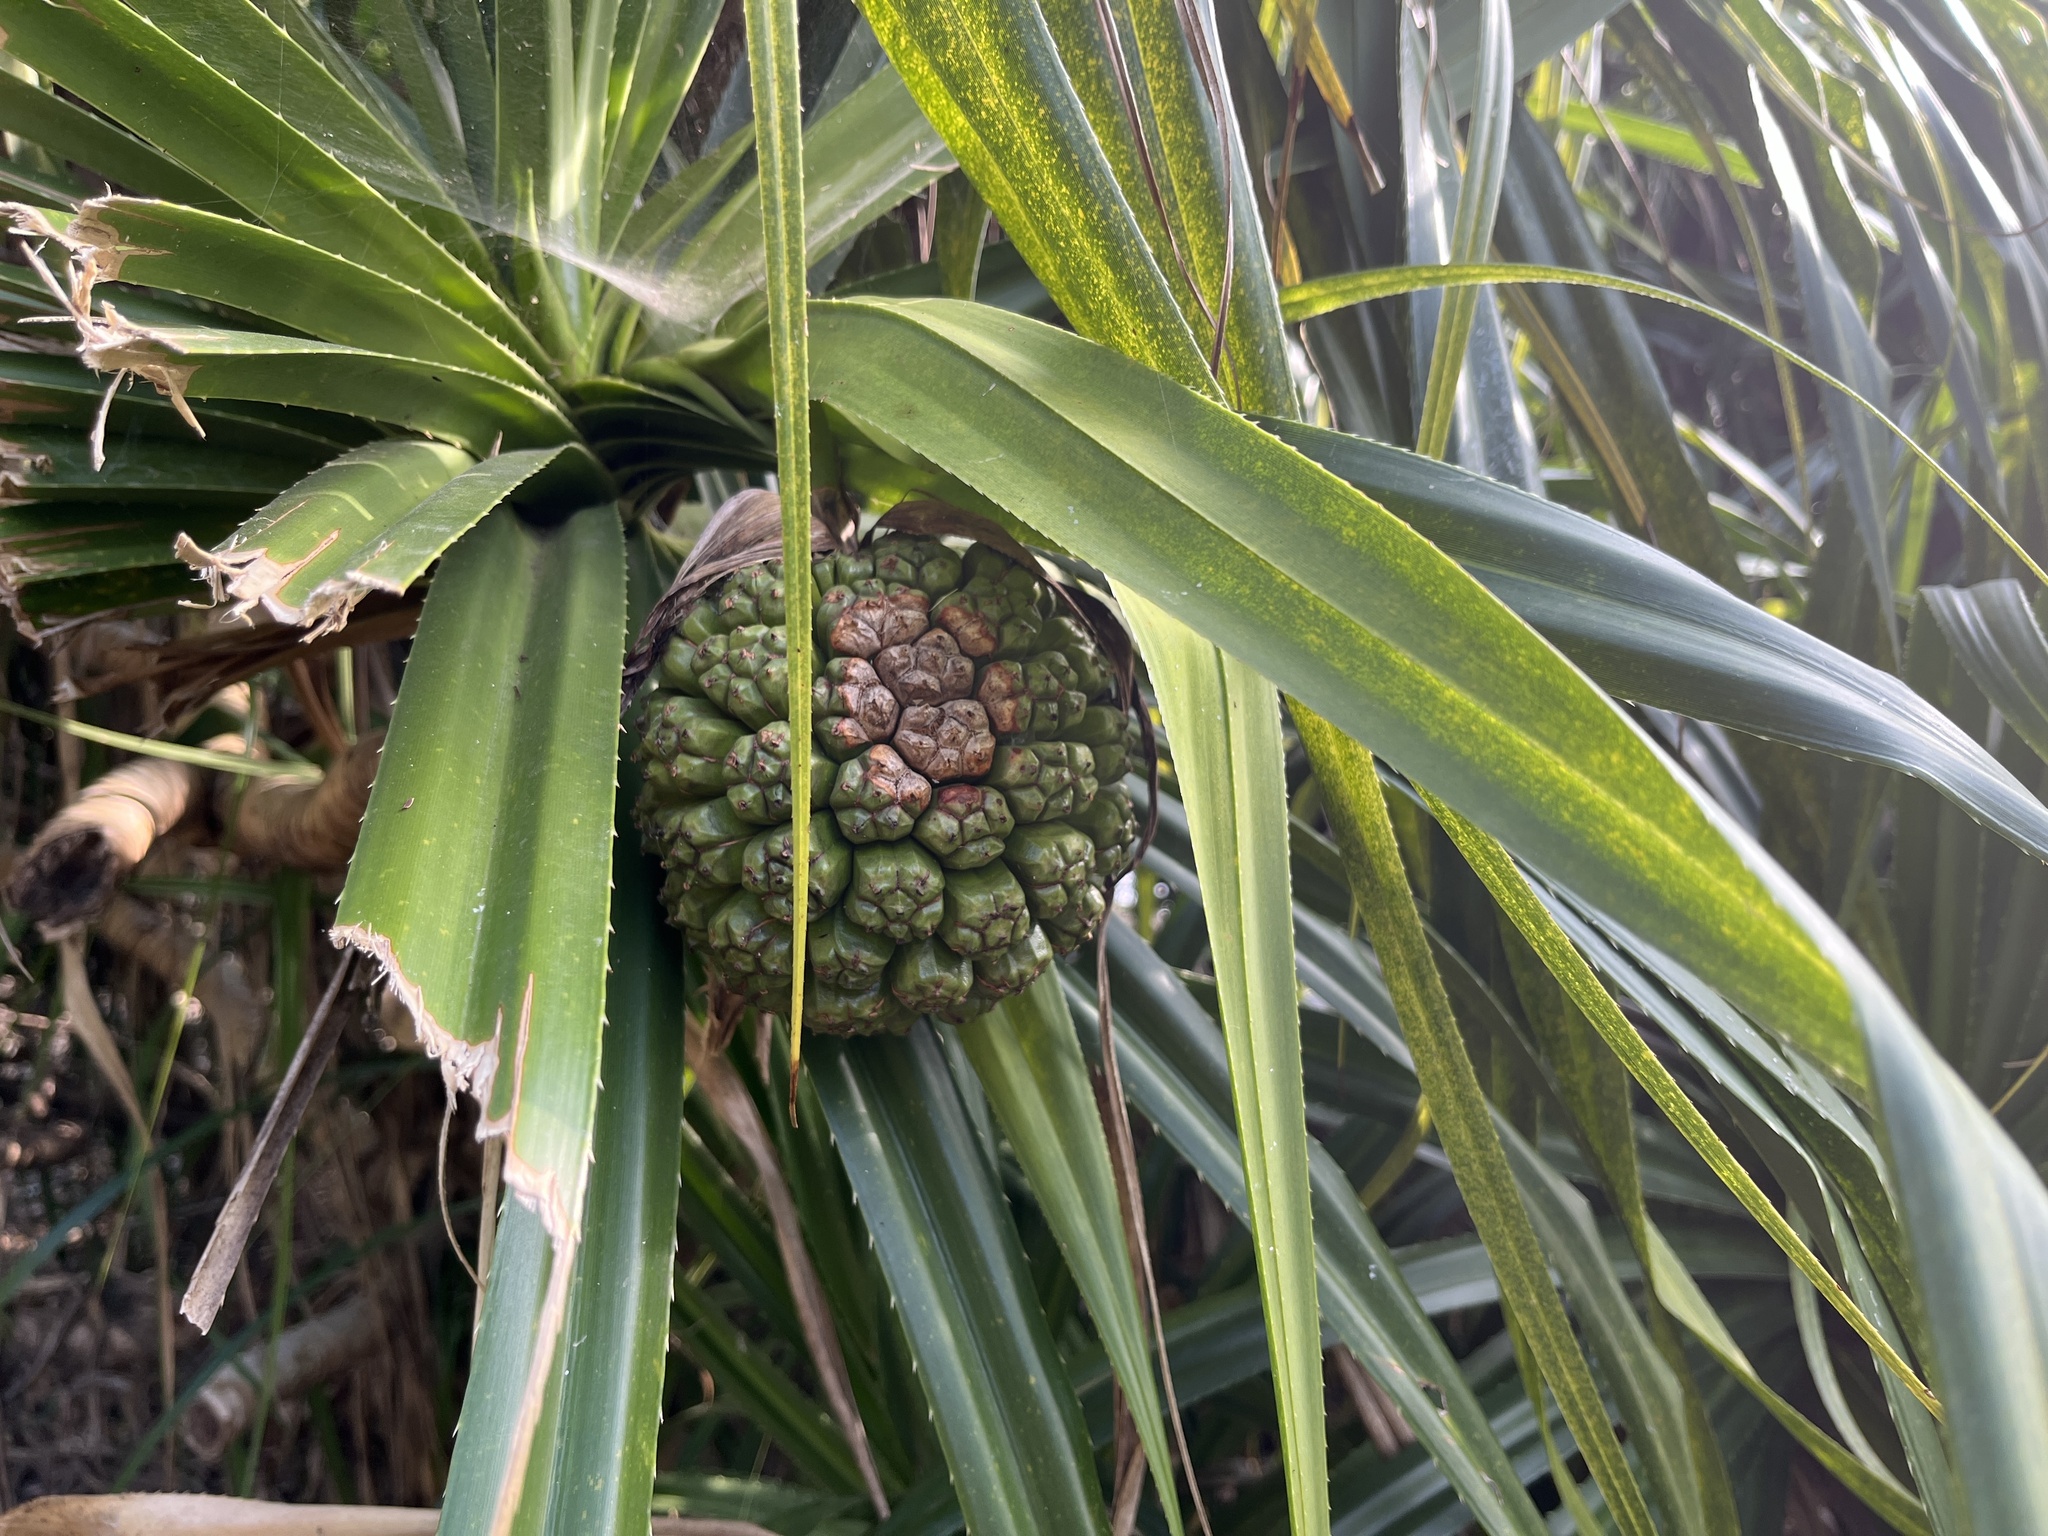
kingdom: Plantae
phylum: Tracheophyta
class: Liliopsida
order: Pandanales
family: Pandanaceae
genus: Pandanus
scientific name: Pandanus tectorius
